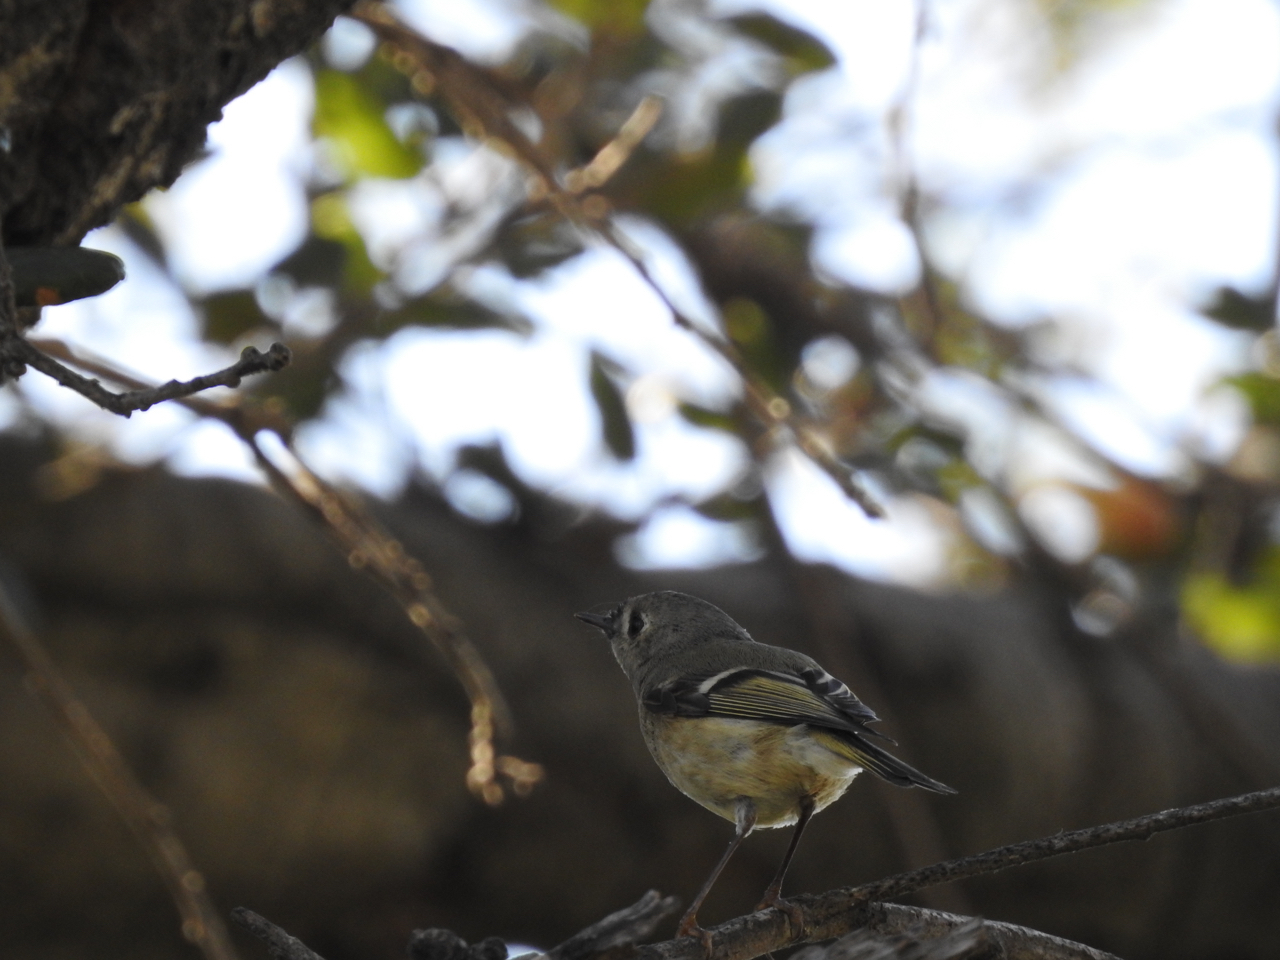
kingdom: Animalia
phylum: Chordata
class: Aves
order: Passeriformes
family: Regulidae
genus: Regulus
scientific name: Regulus calendula
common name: Ruby-crowned kinglet
